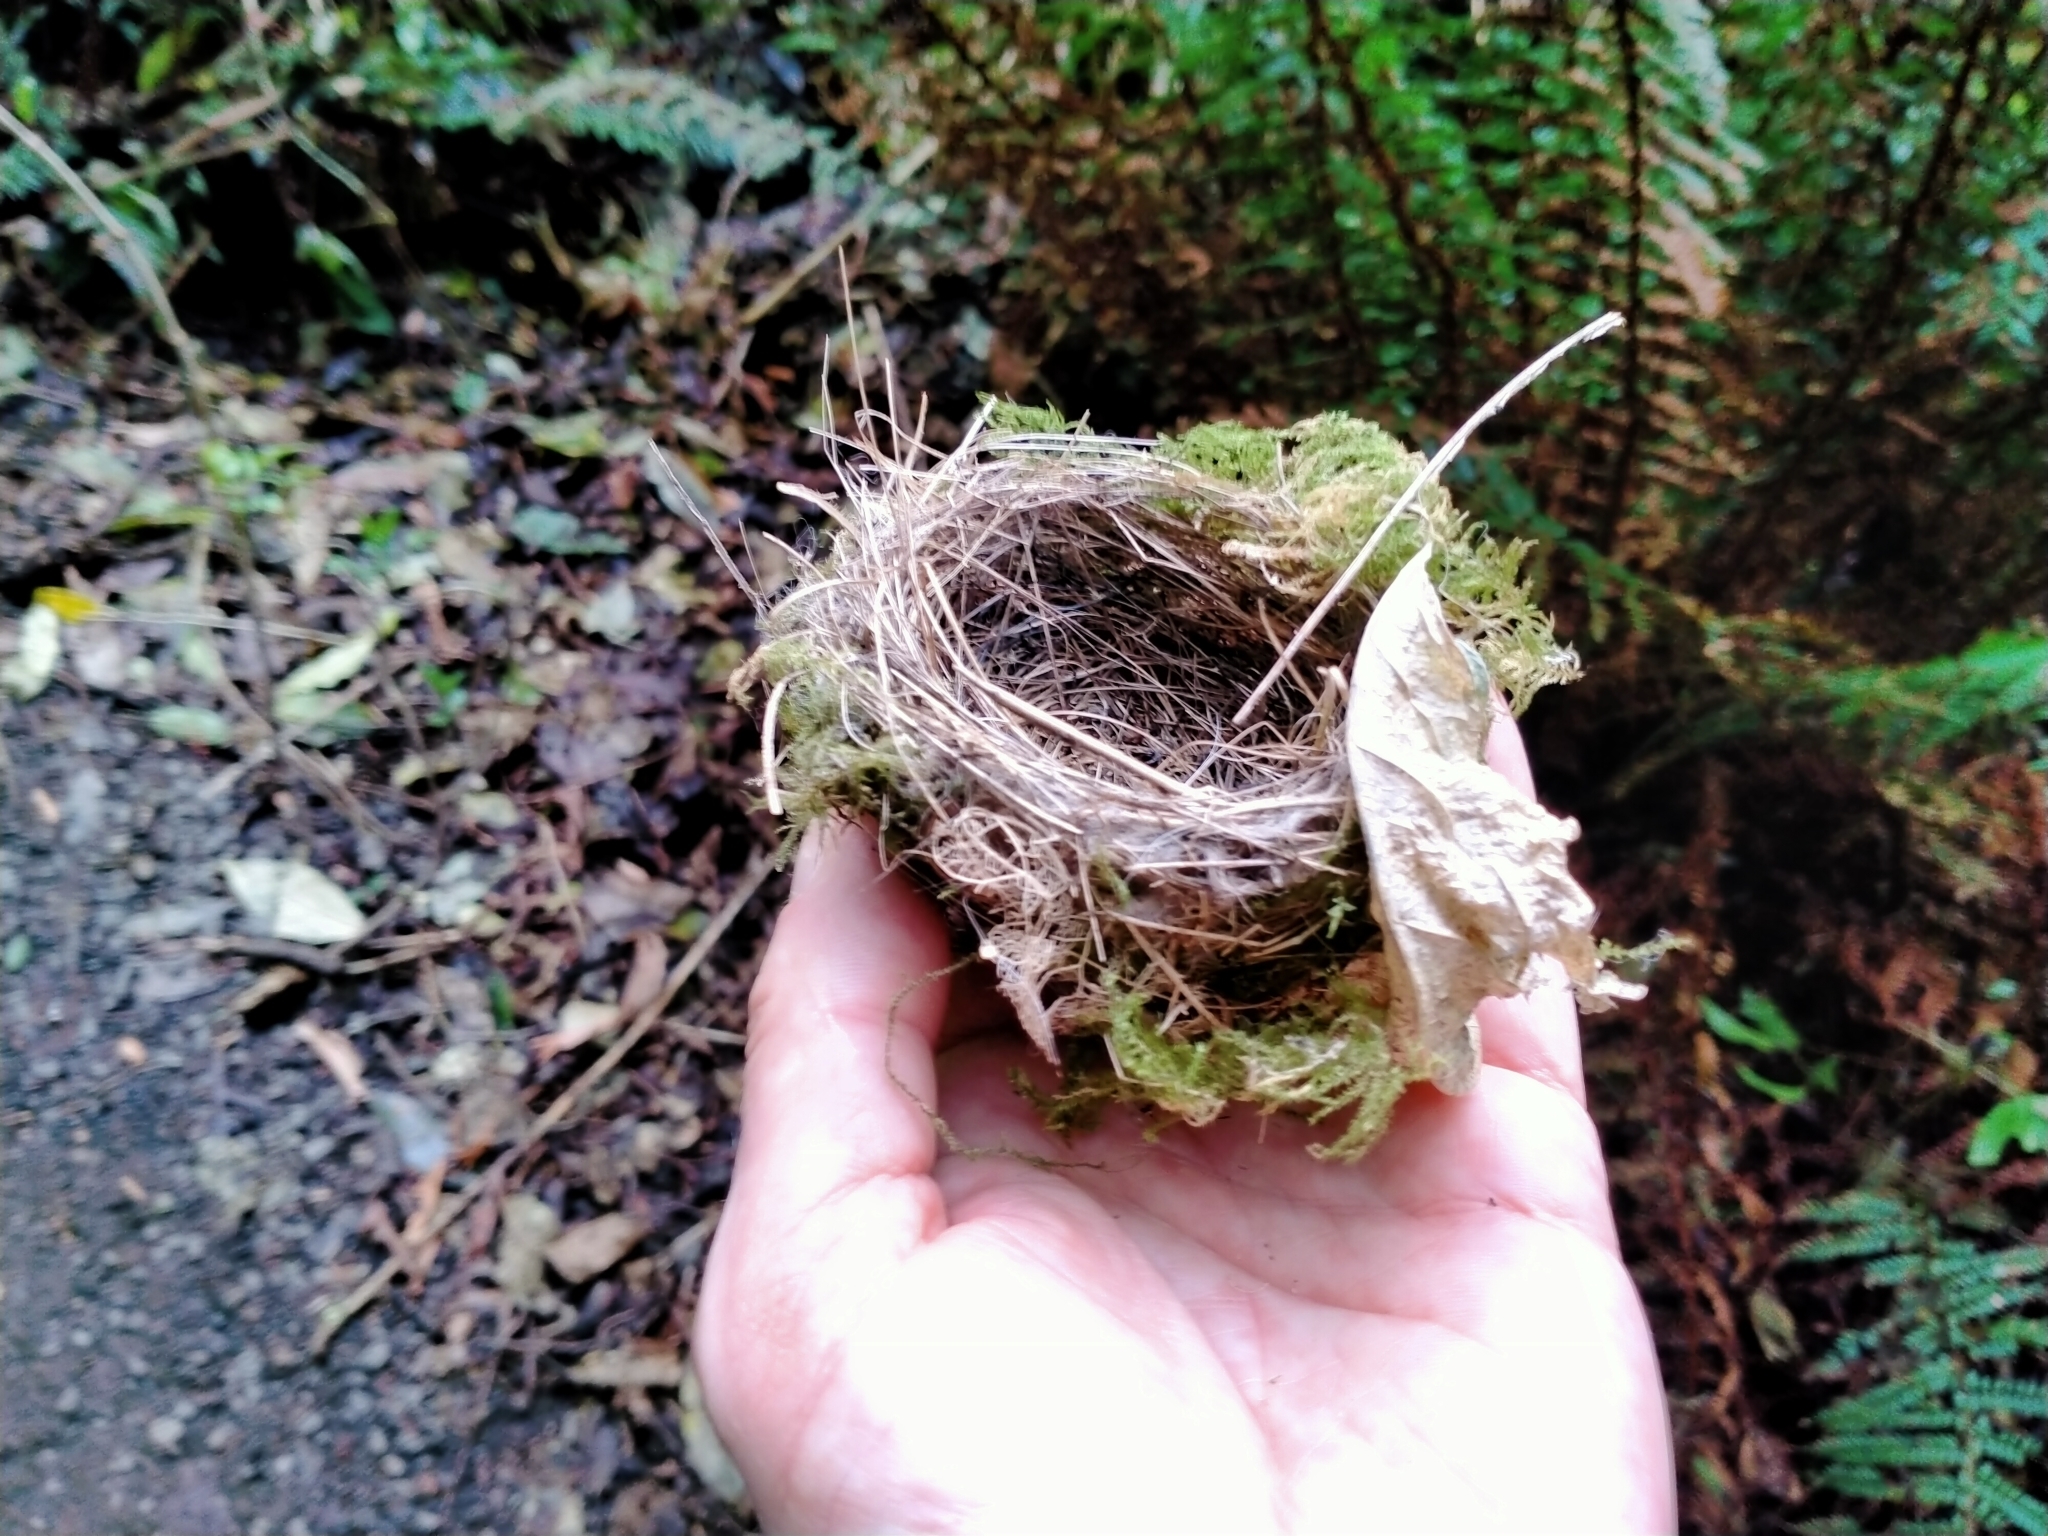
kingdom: Animalia
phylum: Chordata
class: Aves
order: Passeriformes
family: Zosteropidae
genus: Zosterops
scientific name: Zosterops lateralis
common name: Silvereye
